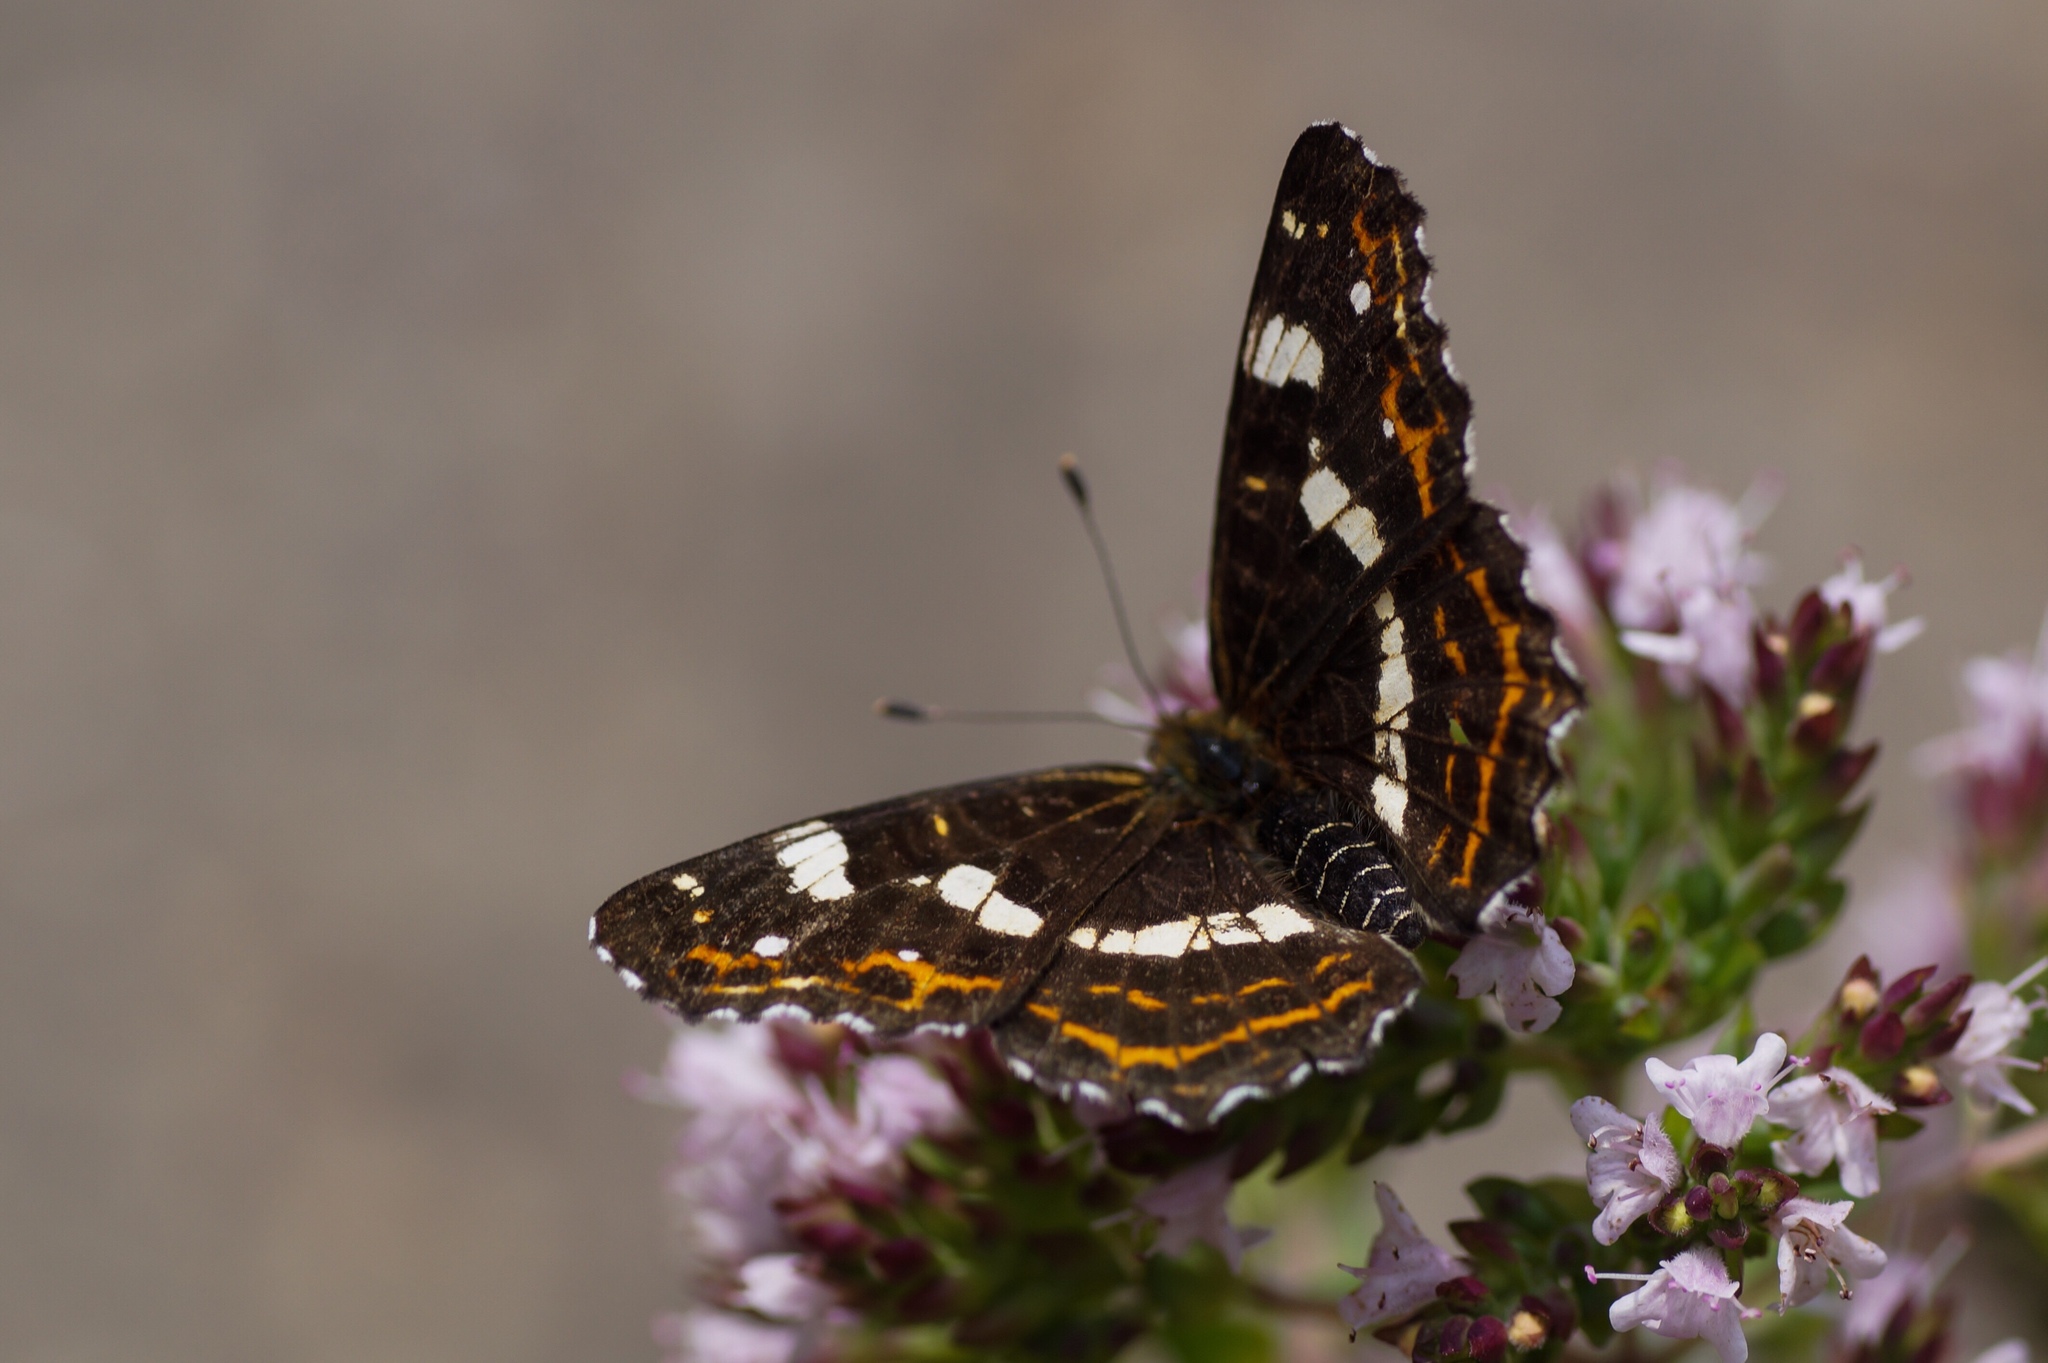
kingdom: Animalia
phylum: Arthropoda
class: Insecta
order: Lepidoptera
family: Nymphalidae
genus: Araschnia
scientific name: Araschnia levana
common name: Map butterfly
